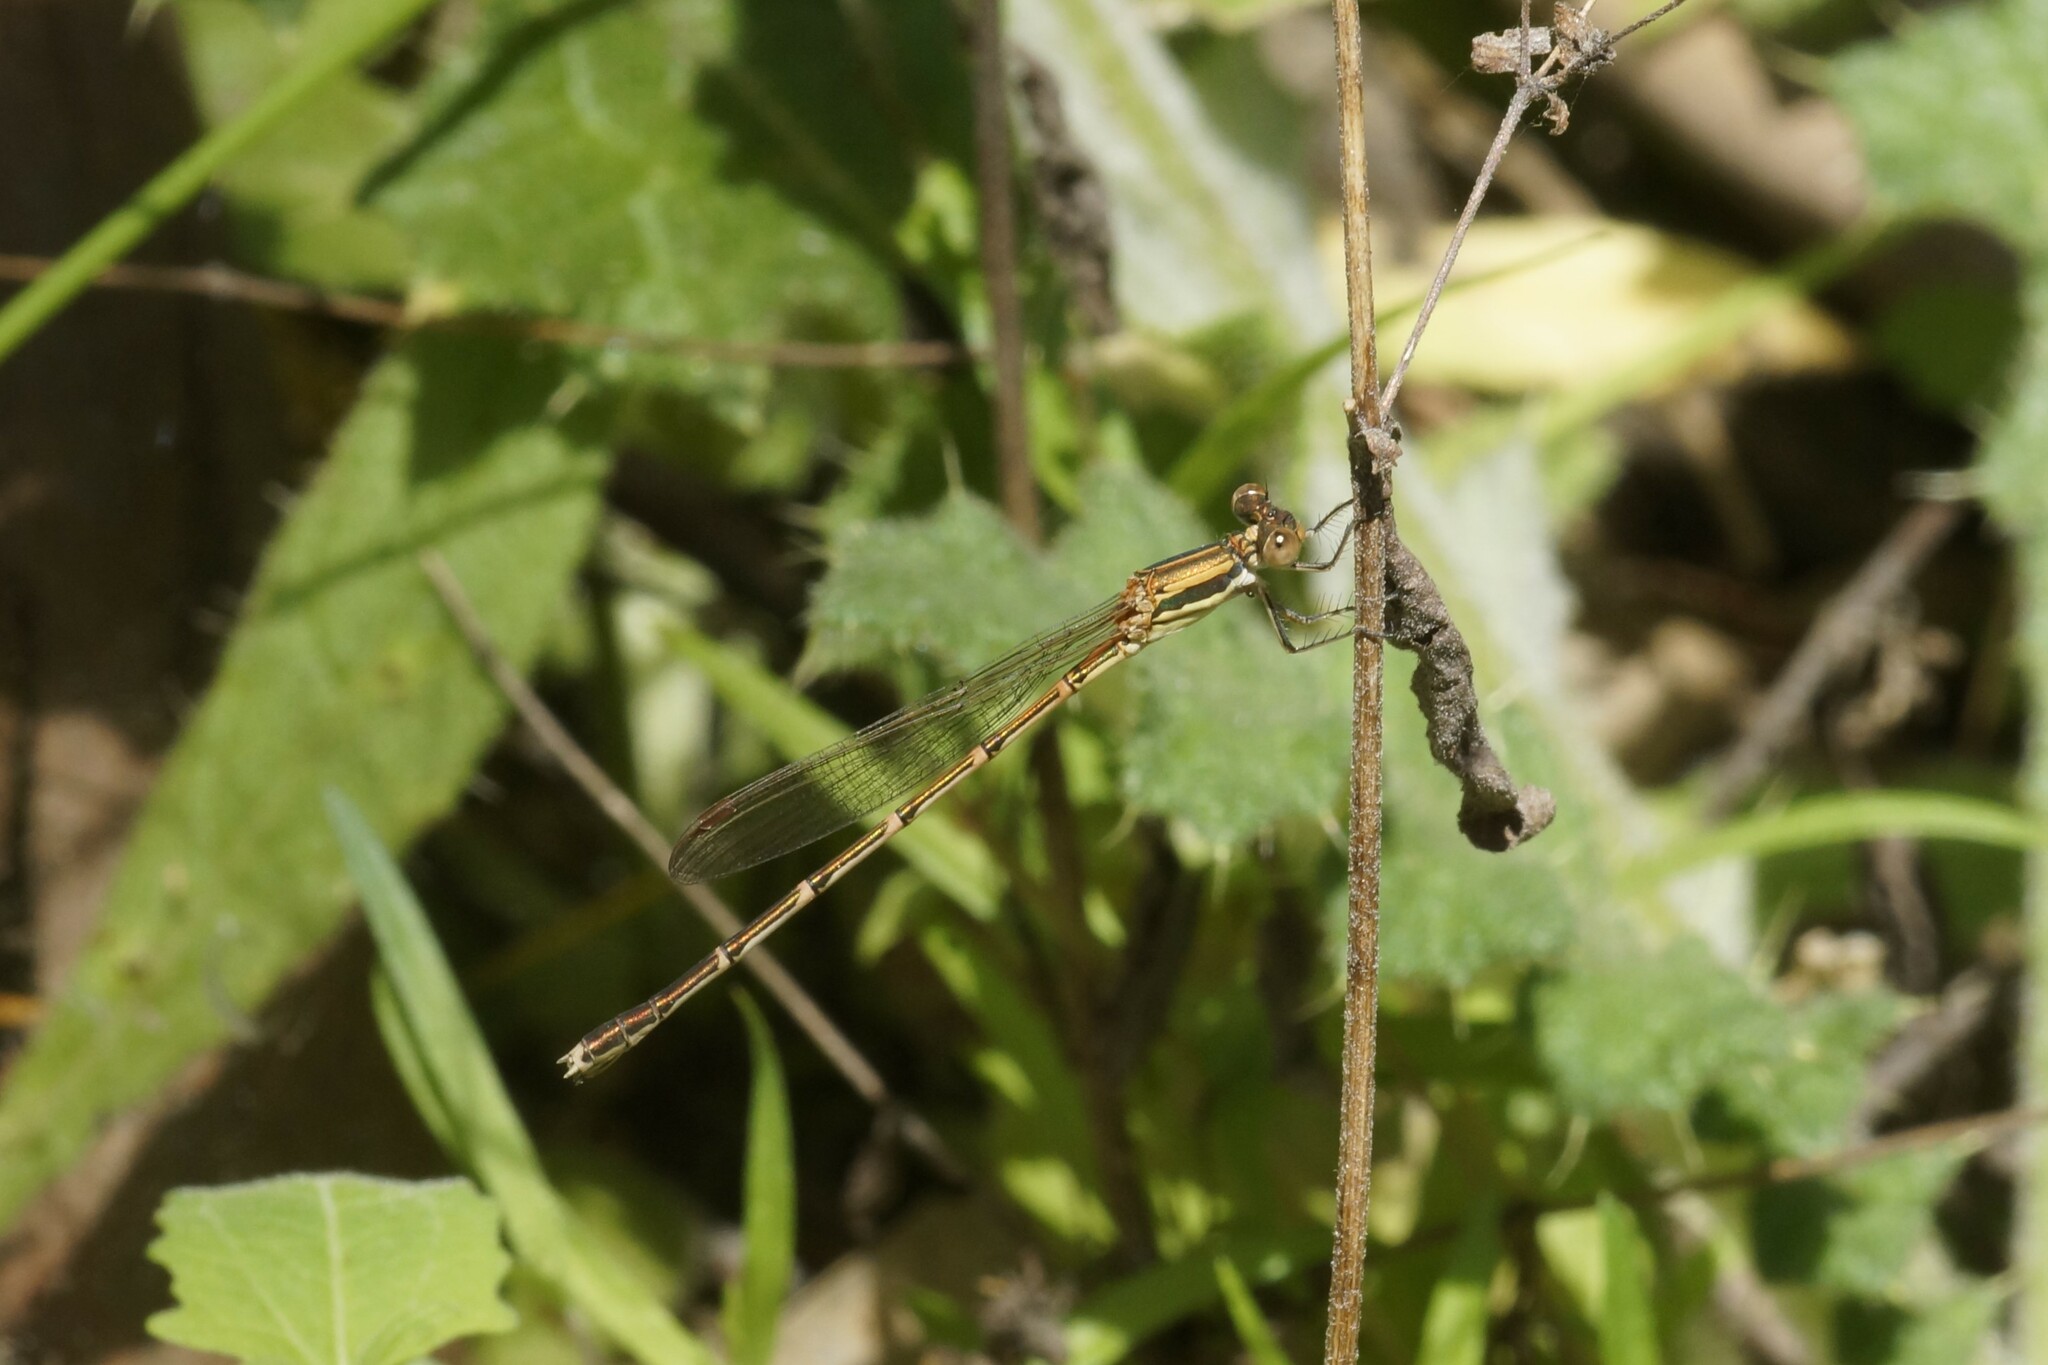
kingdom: Animalia
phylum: Arthropoda
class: Insecta
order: Odonata
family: Lestidae
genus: Austrolestes
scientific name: Austrolestes analis
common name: Slender ringtail
